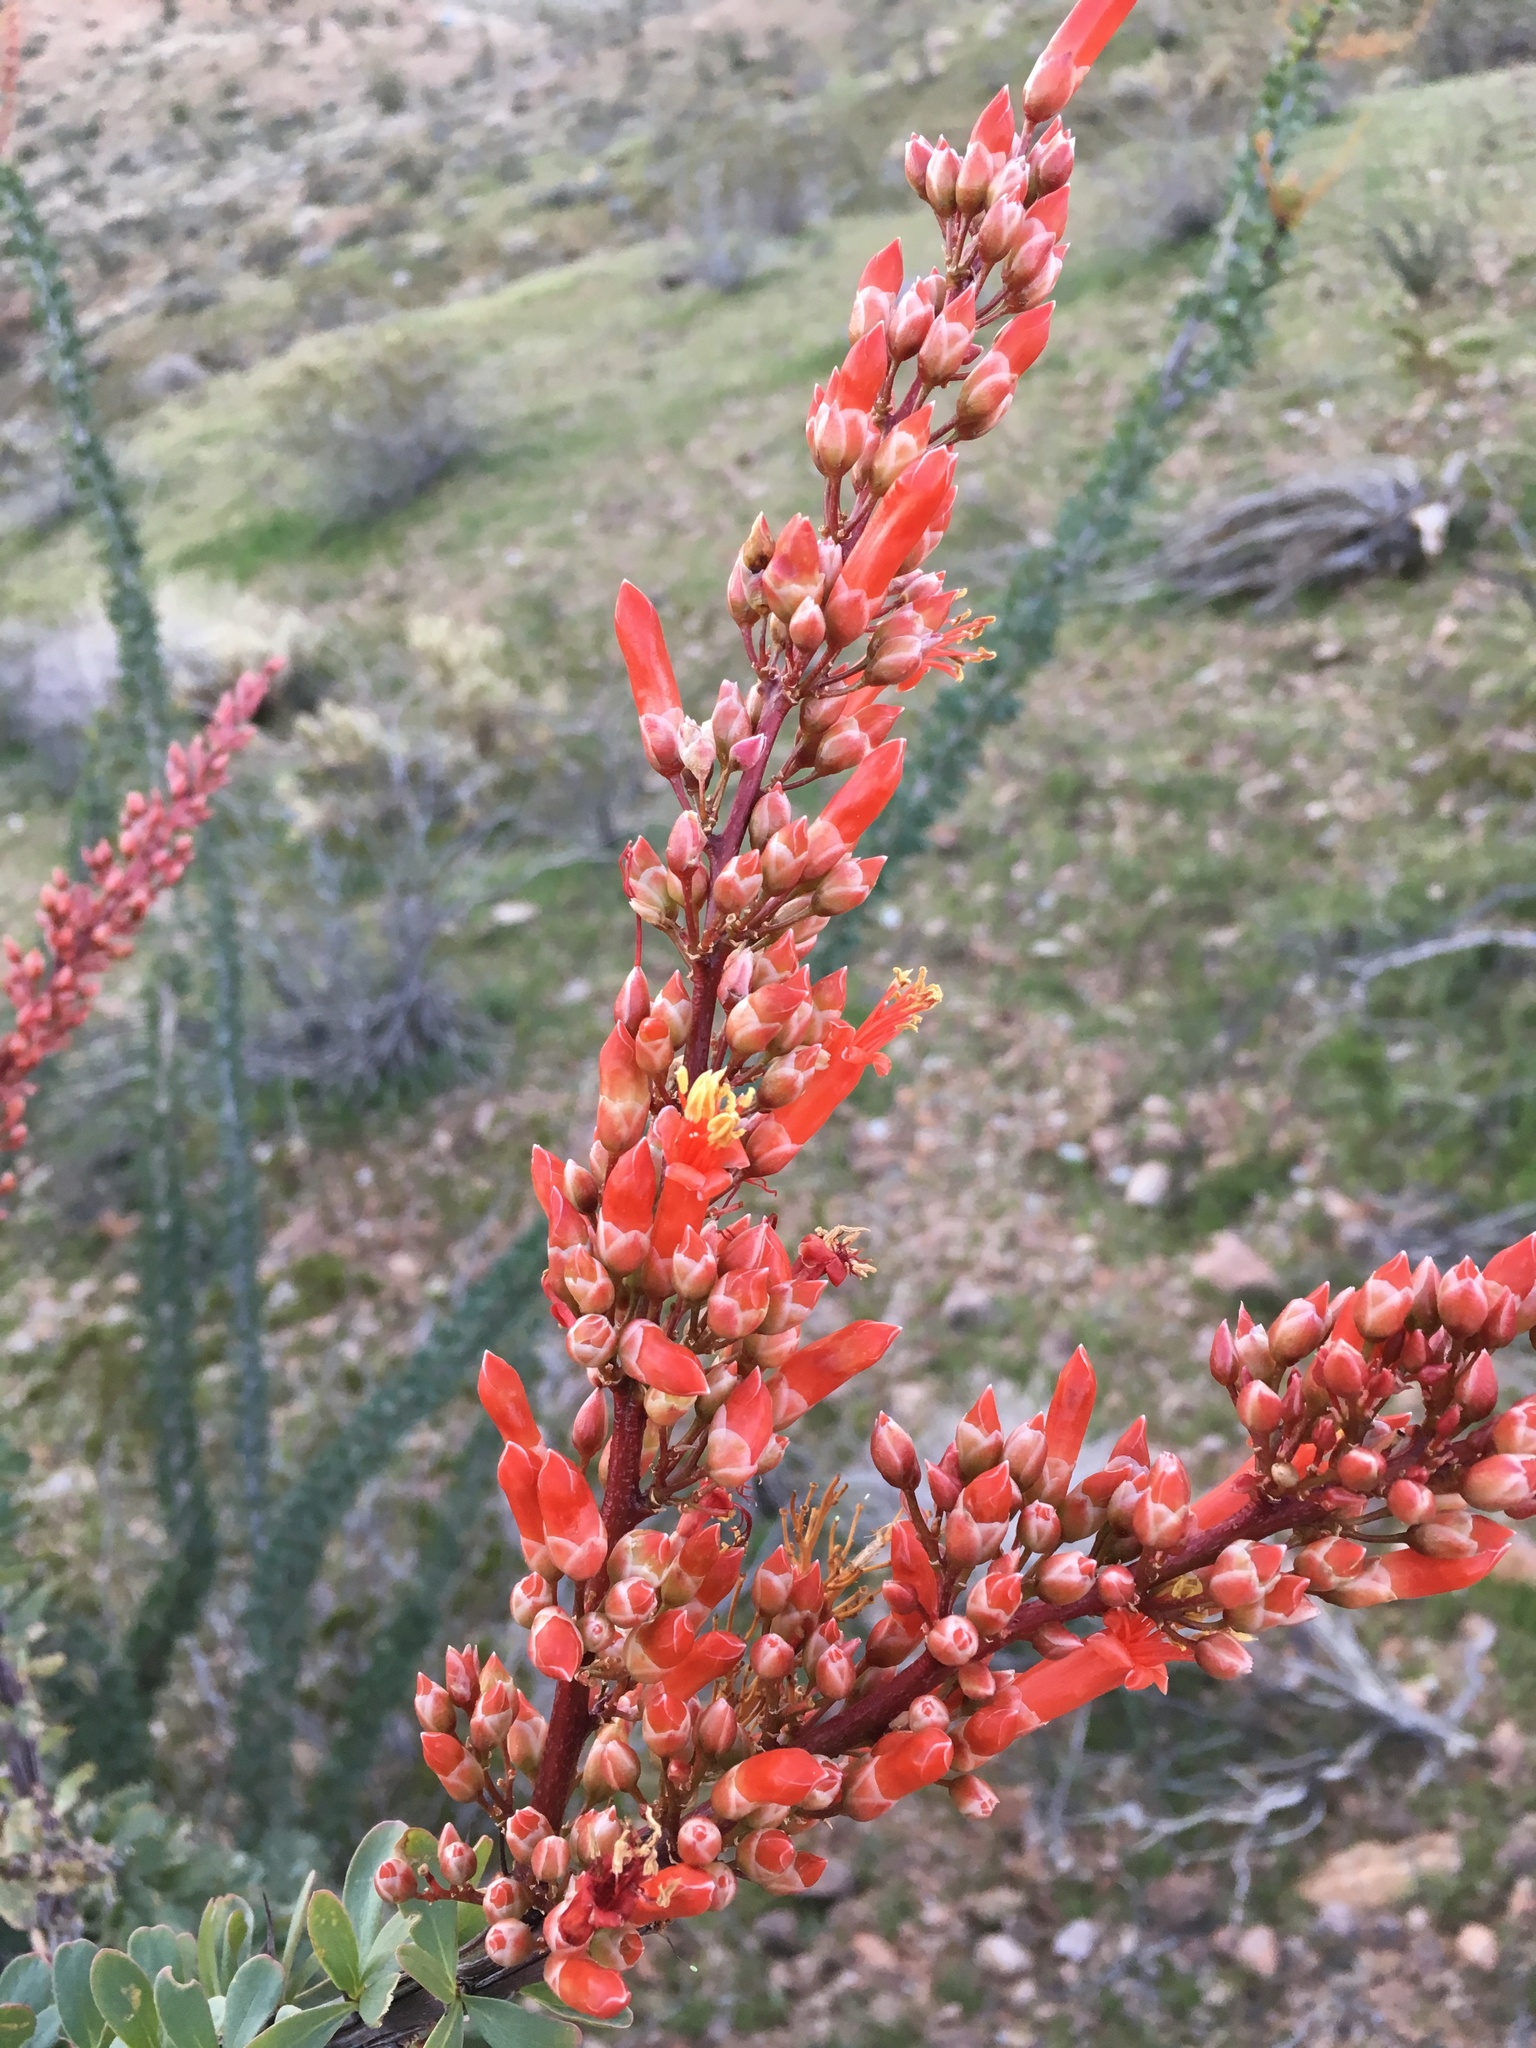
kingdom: Plantae
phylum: Tracheophyta
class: Magnoliopsida
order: Ericales
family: Fouquieriaceae
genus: Fouquieria
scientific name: Fouquieria splendens
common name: Vine-cactus
